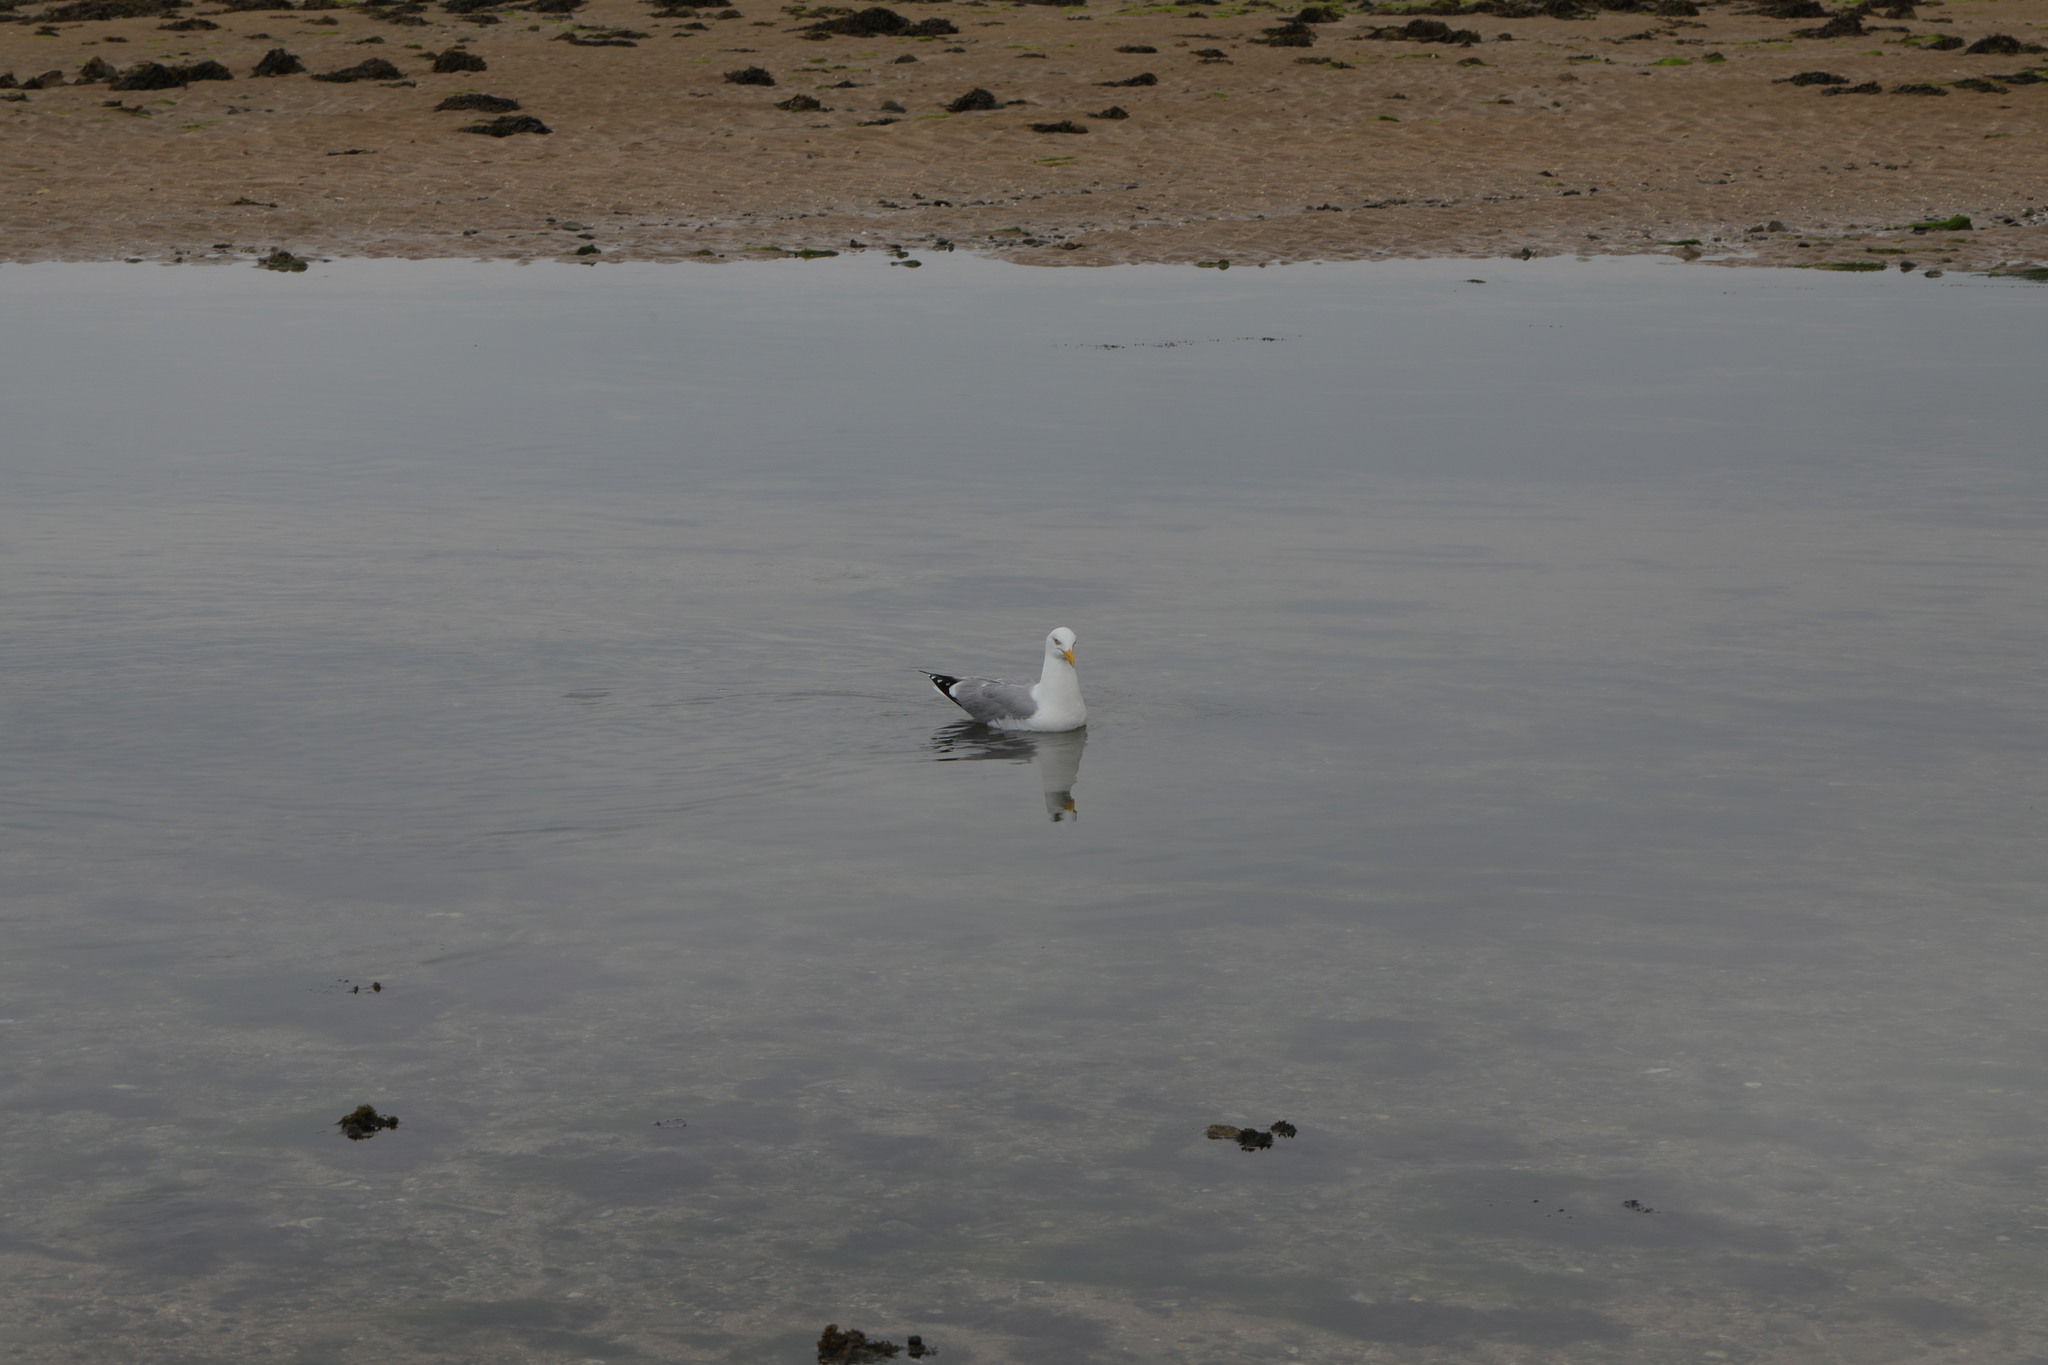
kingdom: Animalia
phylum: Chordata
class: Aves
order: Charadriiformes
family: Laridae
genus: Larus
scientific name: Larus argentatus
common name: Herring gull
